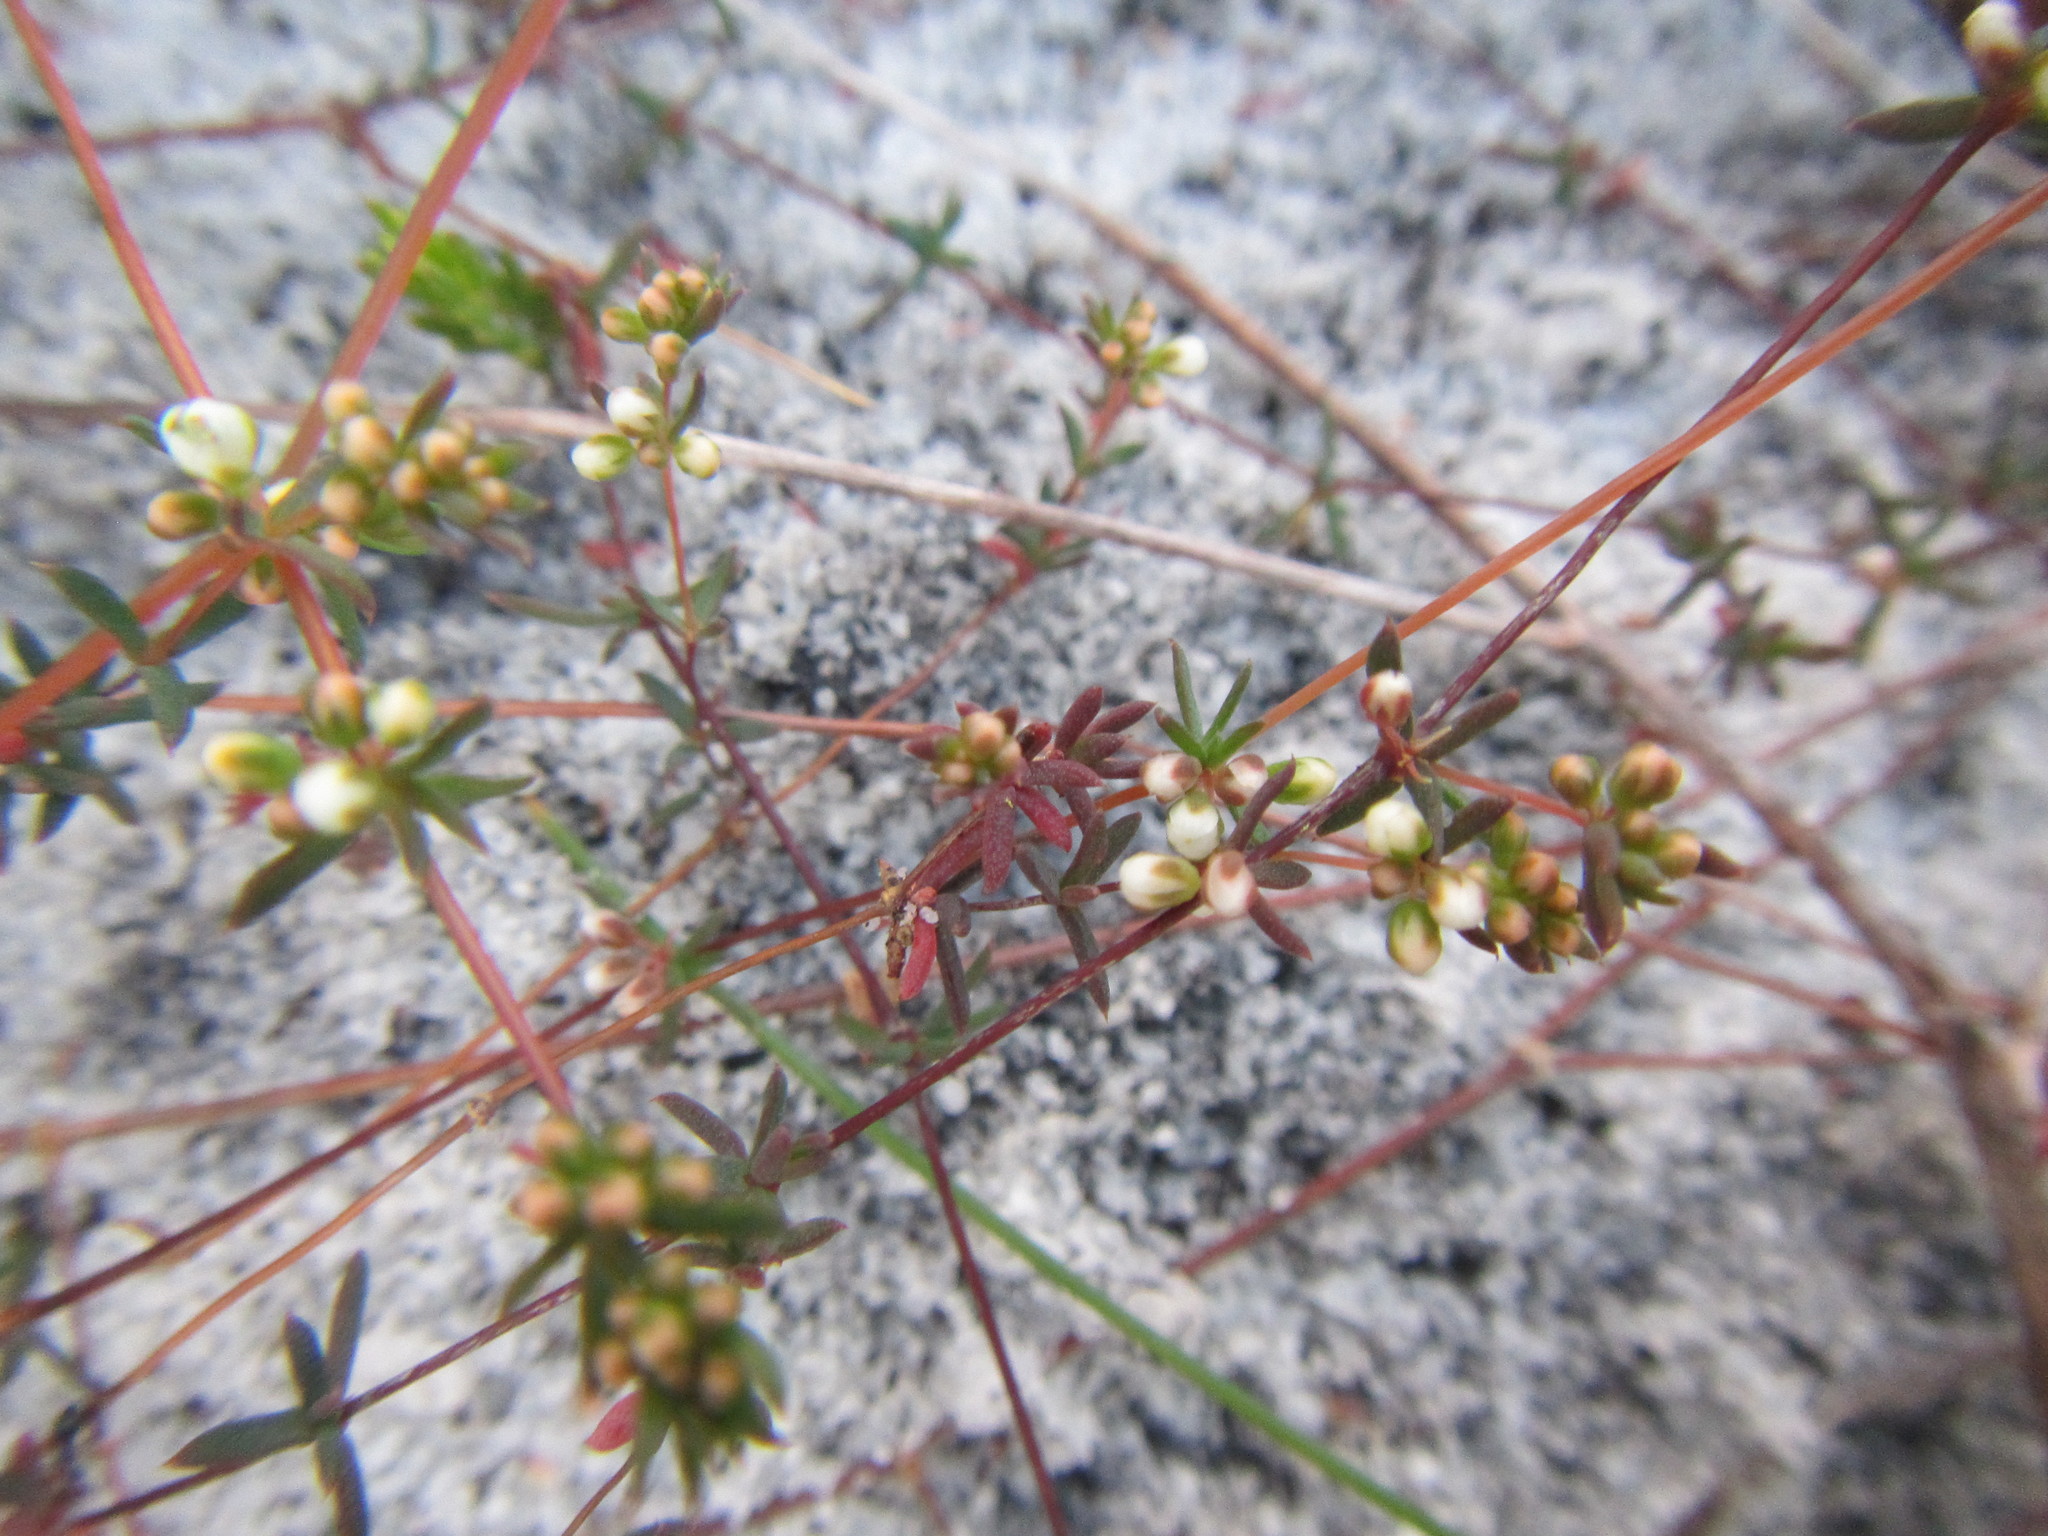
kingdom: Plantae
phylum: Tracheophyta
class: Magnoliopsida
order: Caryophyllales
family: Molluginaceae
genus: Adenogramma
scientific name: Adenogramma lichtensteiniana
